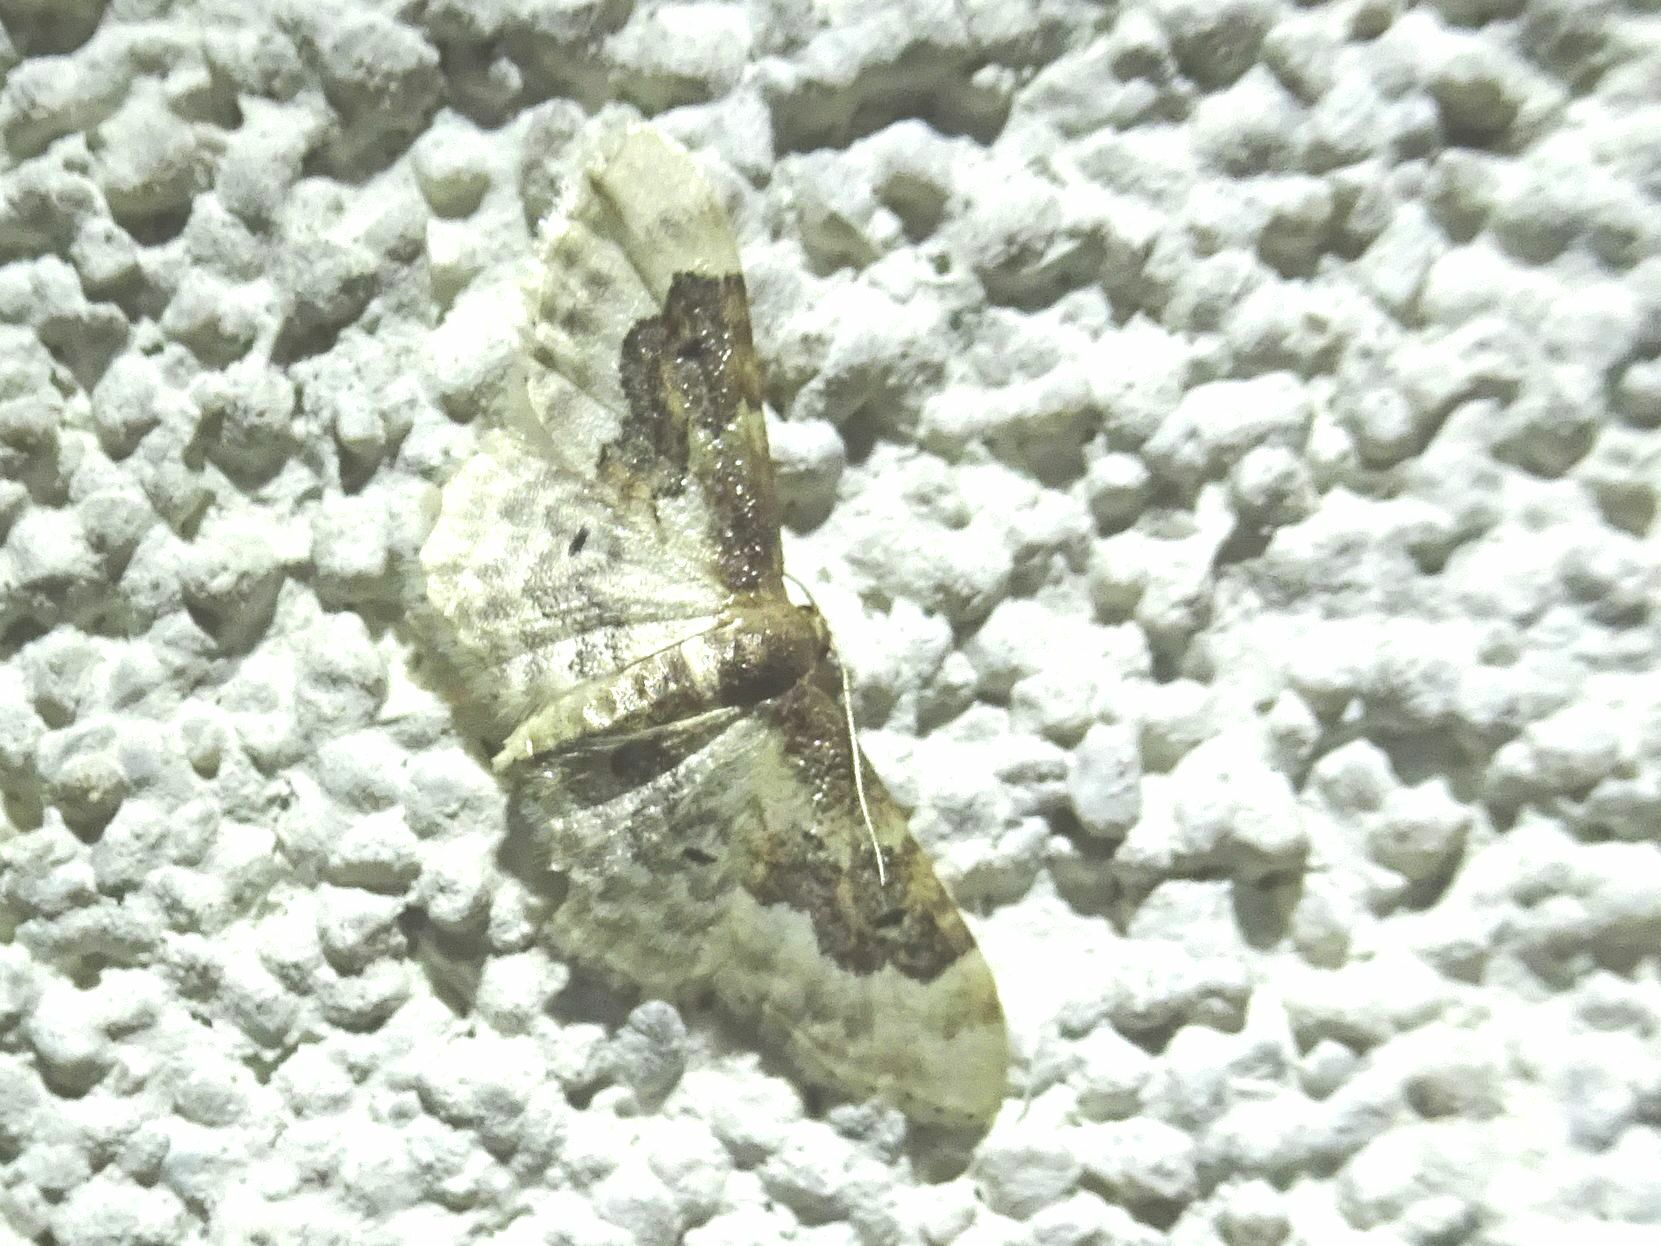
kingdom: Animalia
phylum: Arthropoda
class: Insecta
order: Lepidoptera
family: Geometridae
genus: Idaea
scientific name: Idaea rusticata
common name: Least carpet
